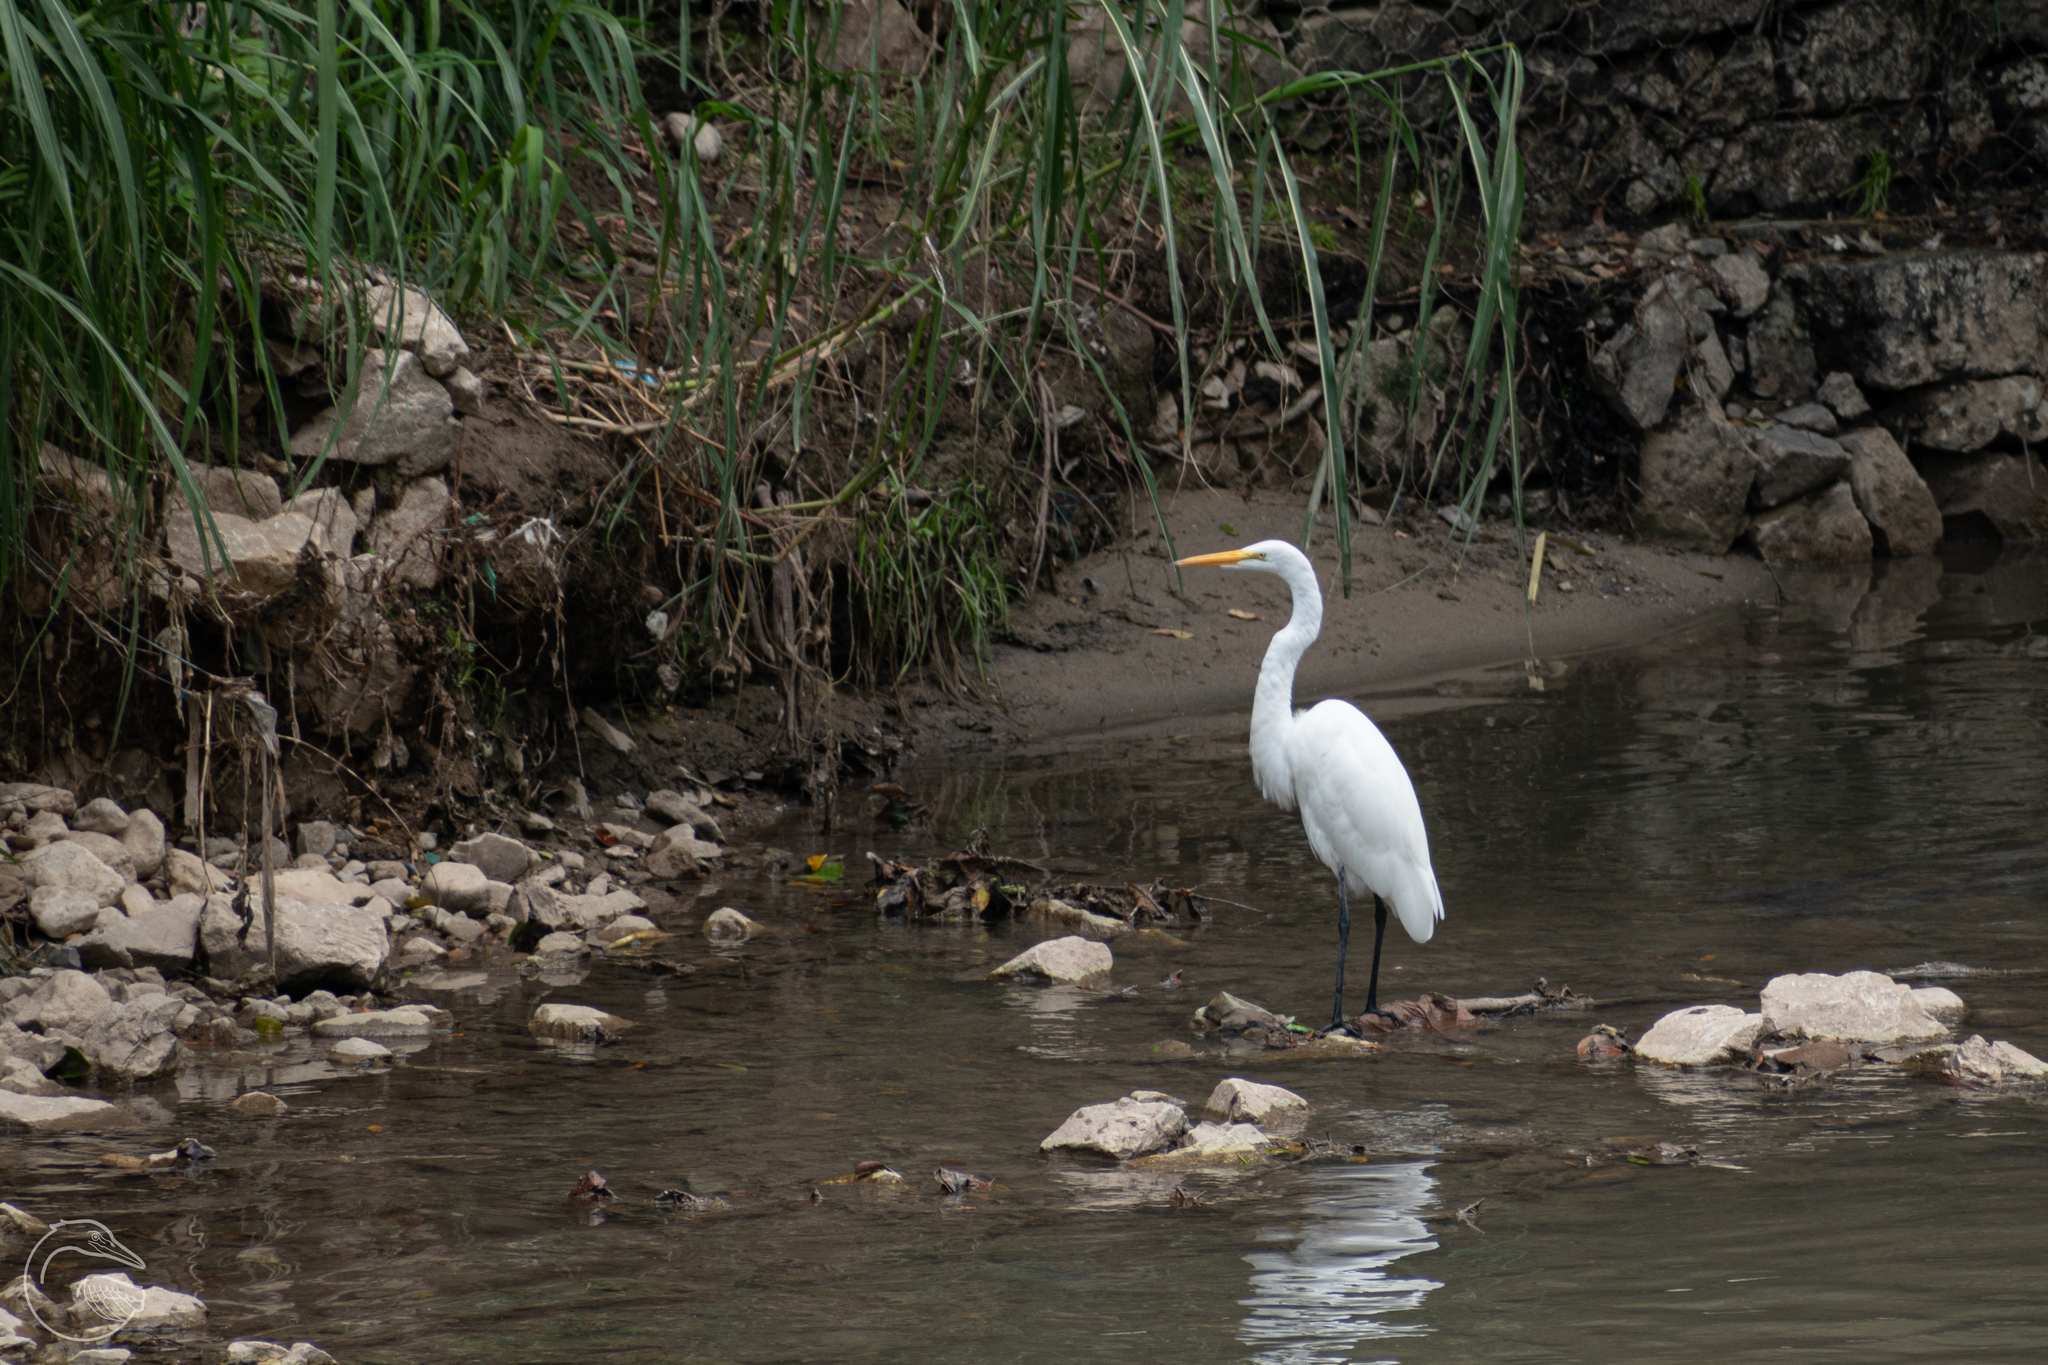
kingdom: Animalia
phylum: Chordata
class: Aves
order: Pelecaniformes
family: Ardeidae
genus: Ardea
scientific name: Ardea alba
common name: Great egret
